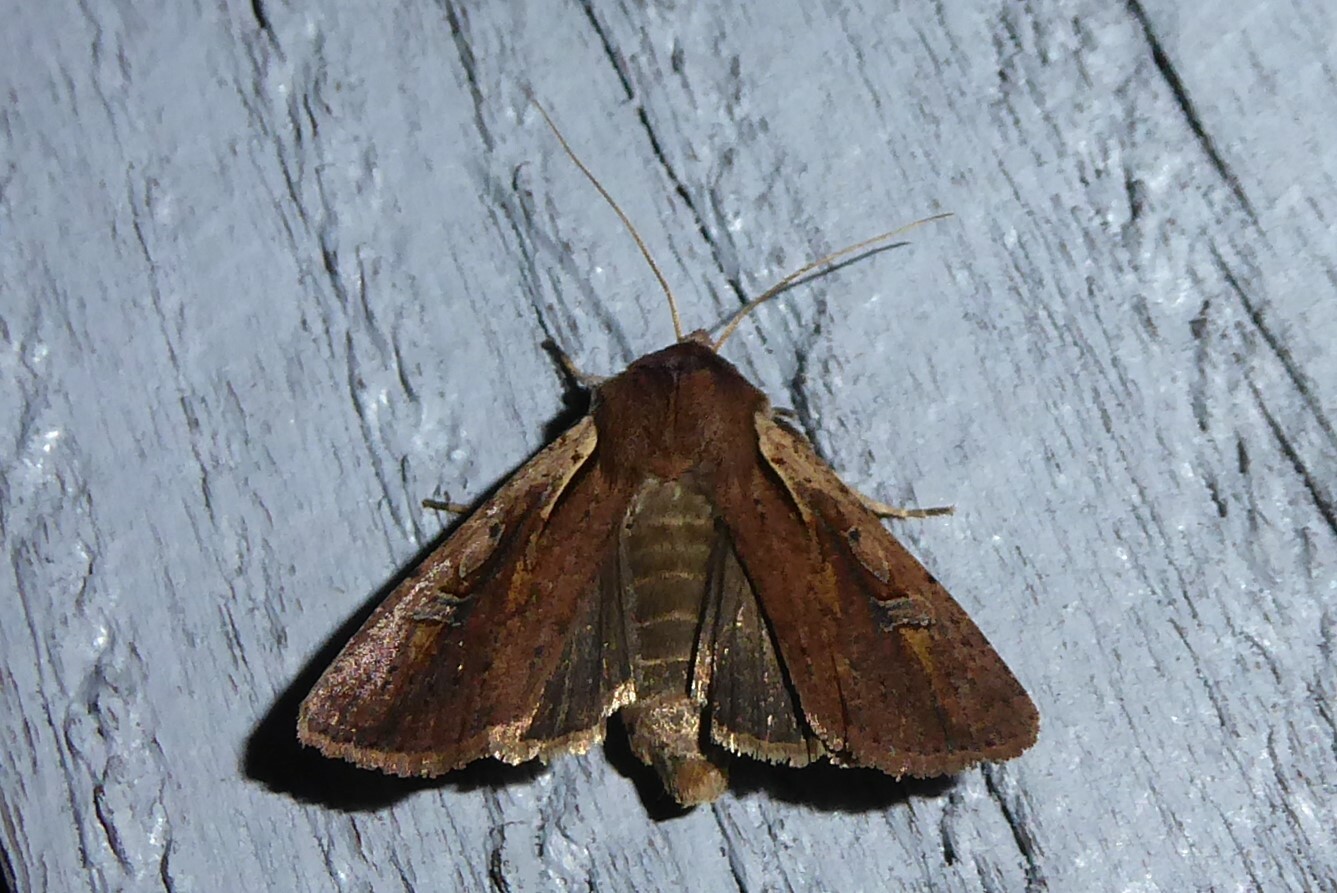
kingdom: Animalia
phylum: Arthropoda
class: Insecta
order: Lepidoptera
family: Noctuidae
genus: Ichneutica
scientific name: Ichneutica atristriga
